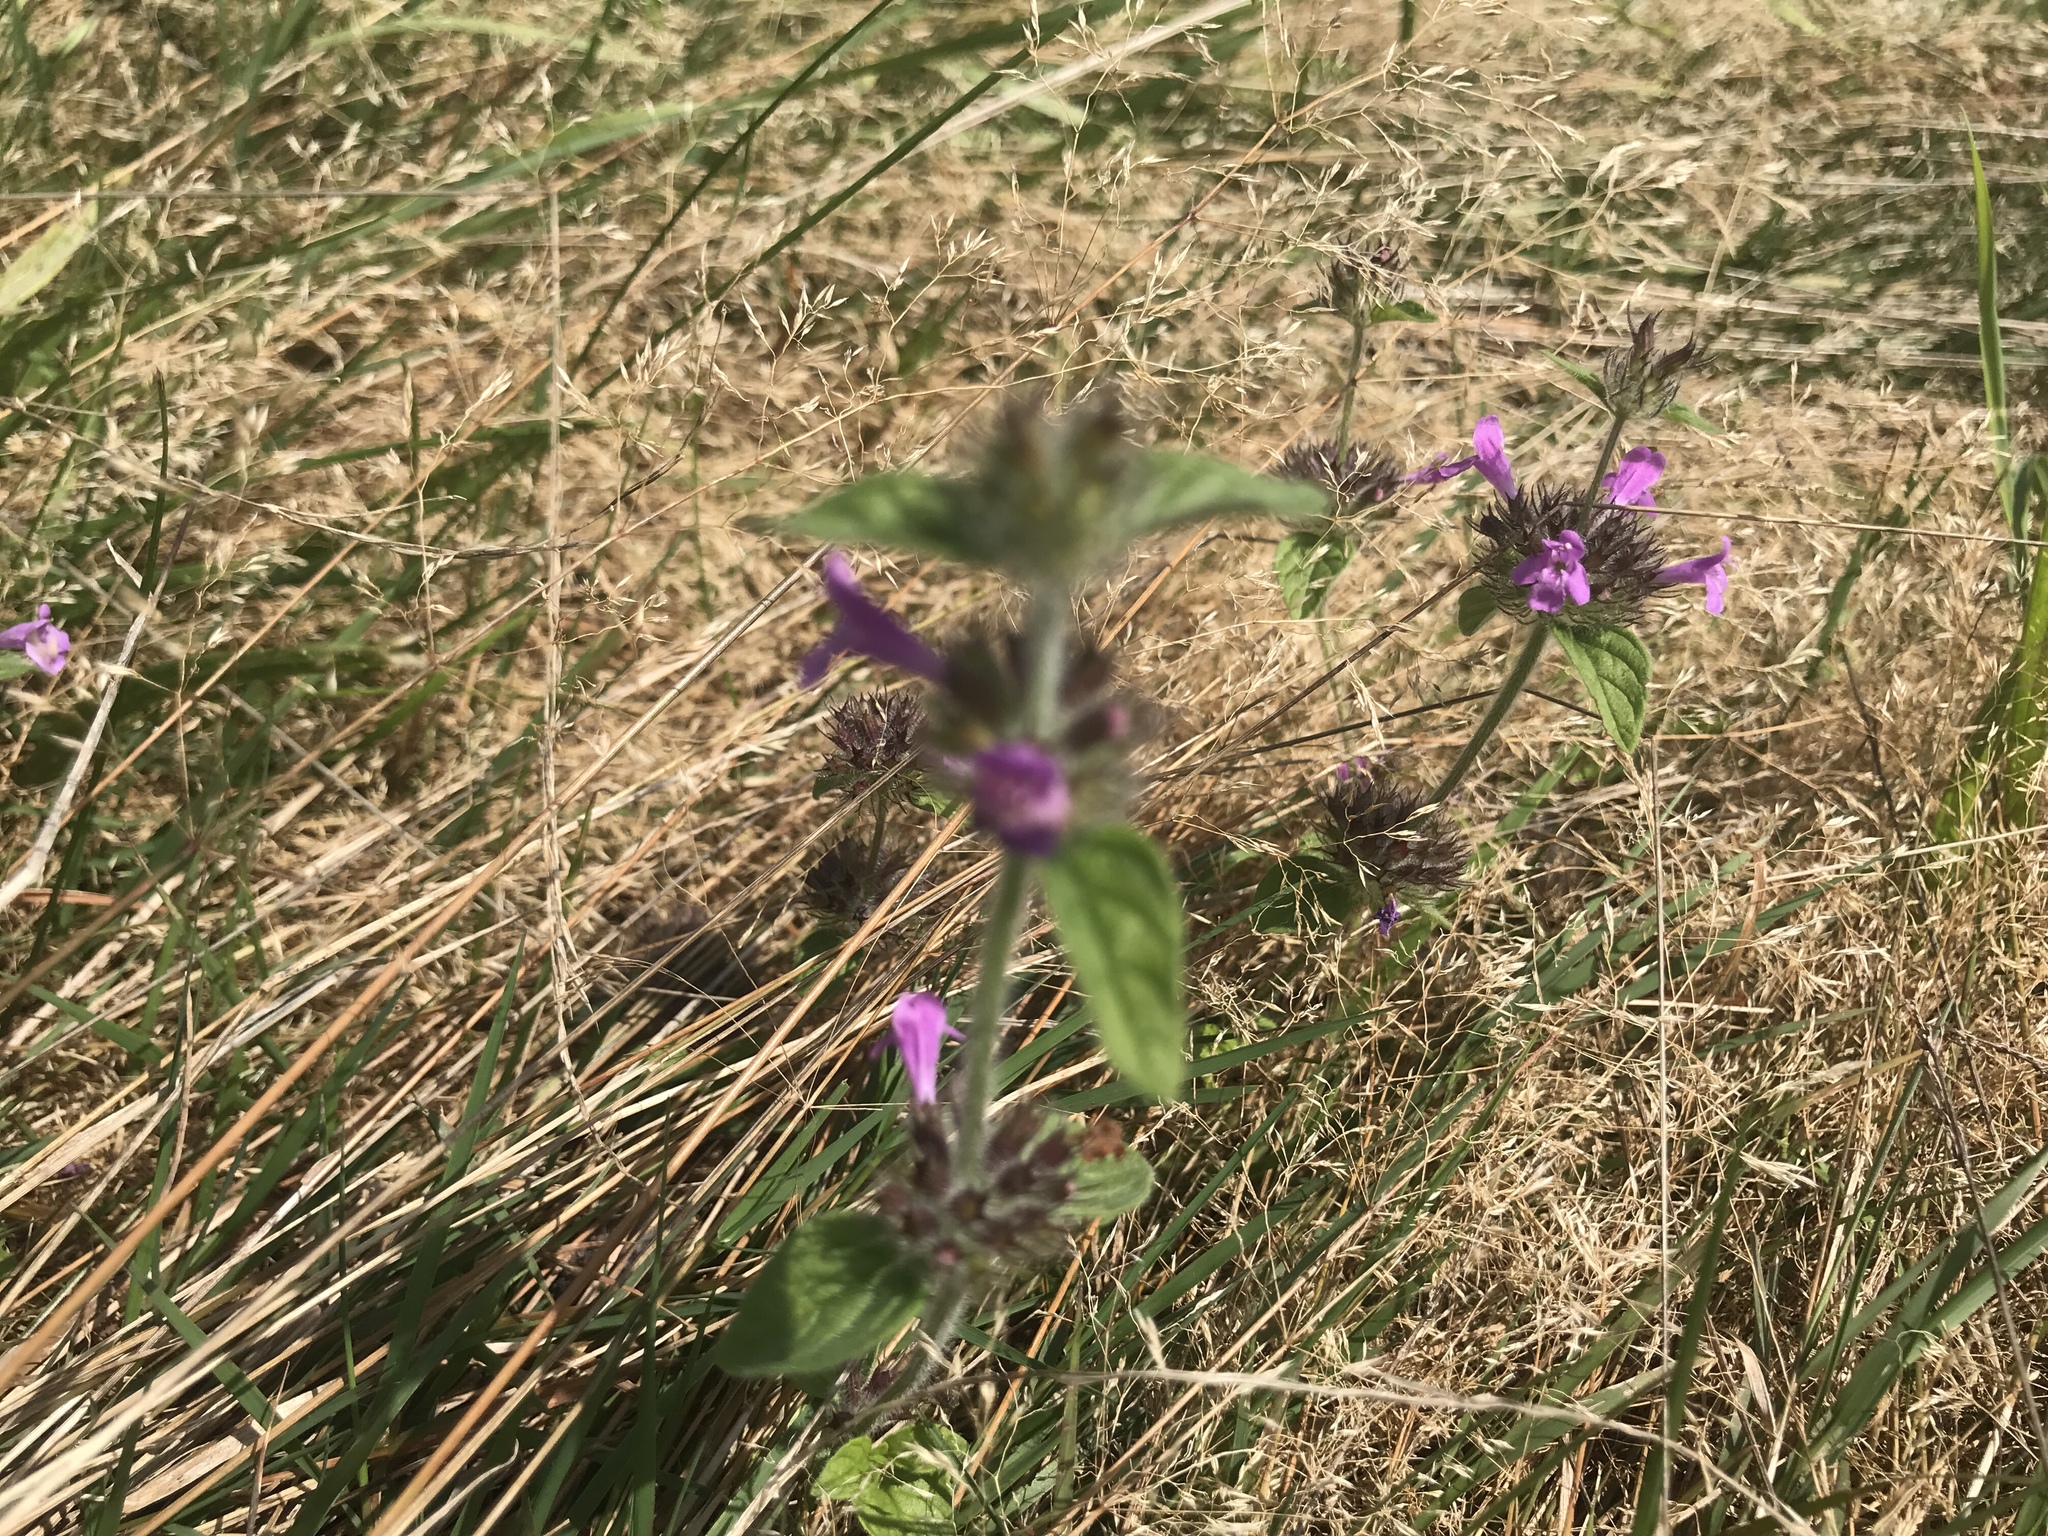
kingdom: Plantae
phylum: Tracheophyta
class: Magnoliopsida
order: Lamiales
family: Lamiaceae
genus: Clinopodium
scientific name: Clinopodium vulgare
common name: Wild basil
